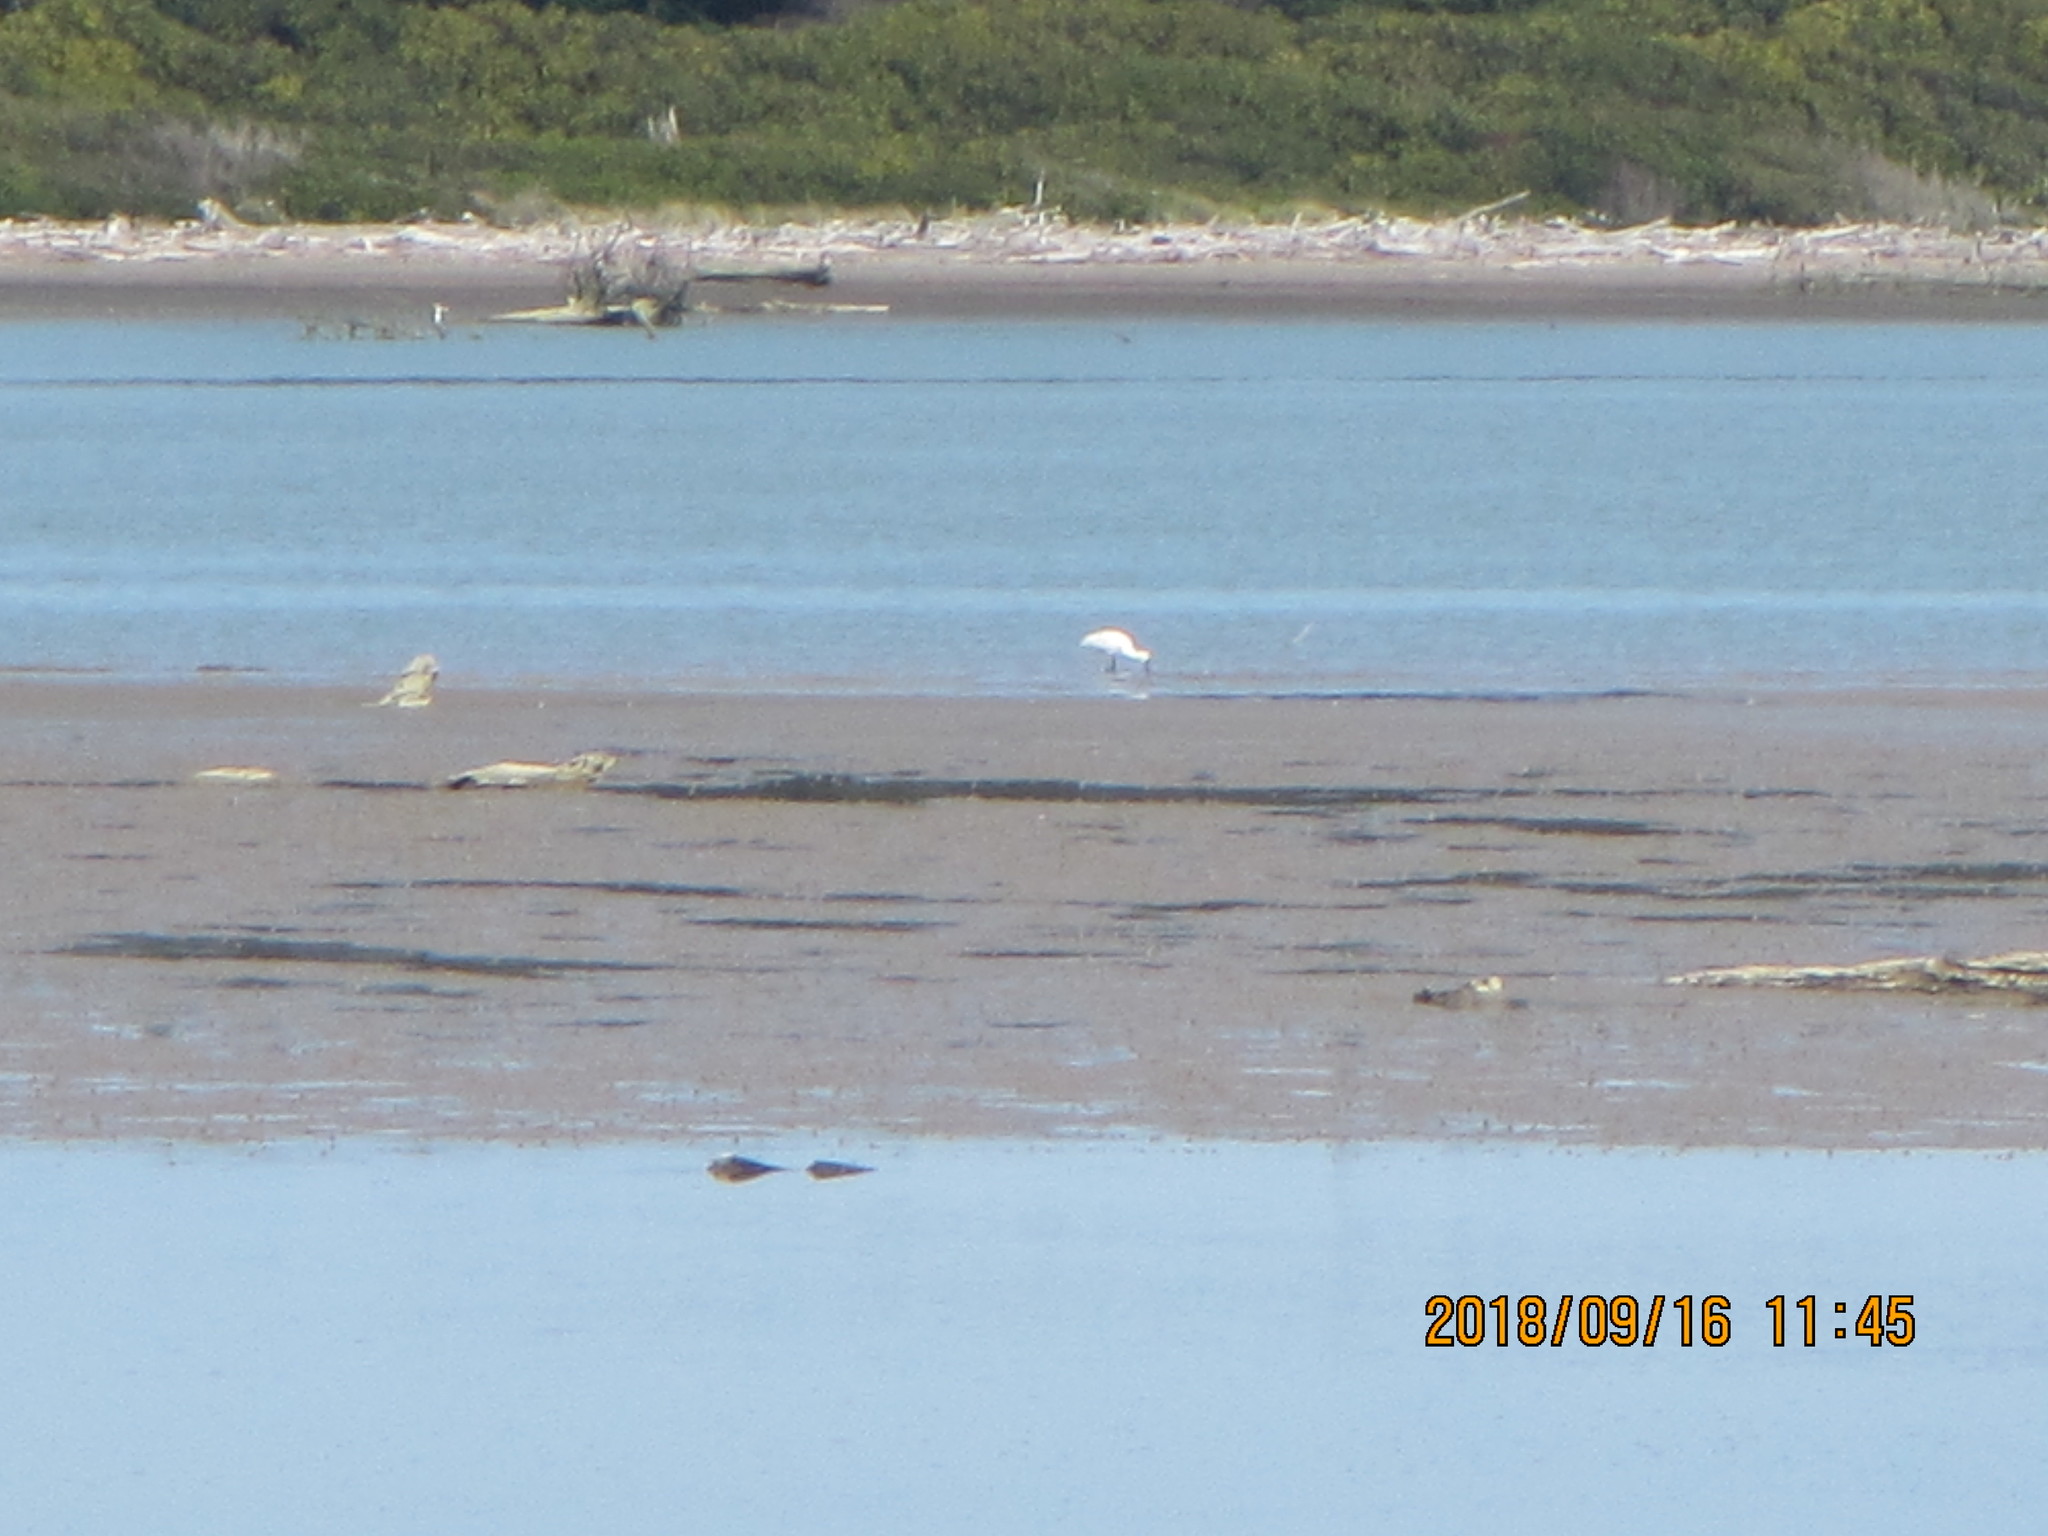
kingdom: Animalia
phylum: Chordata
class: Aves
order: Pelecaniformes
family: Threskiornithidae
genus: Platalea
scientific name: Platalea regia
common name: Royal spoonbill
